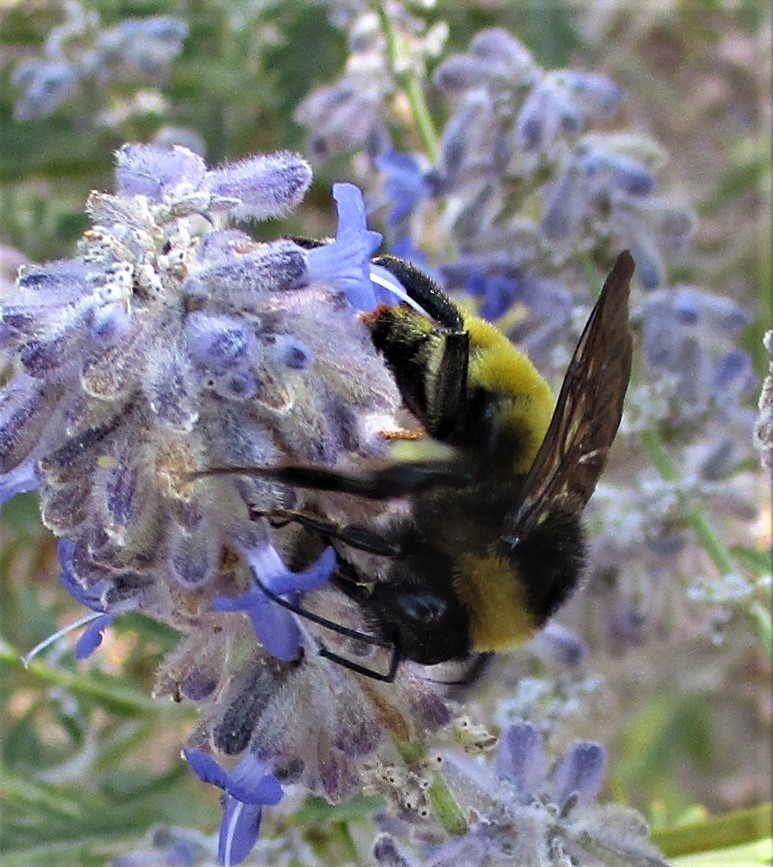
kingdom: Animalia
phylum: Arthropoda
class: Insecta
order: Hymenoptera
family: Apidae
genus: Bombus
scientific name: Bombus pensylvanicus
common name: Bumble bee
